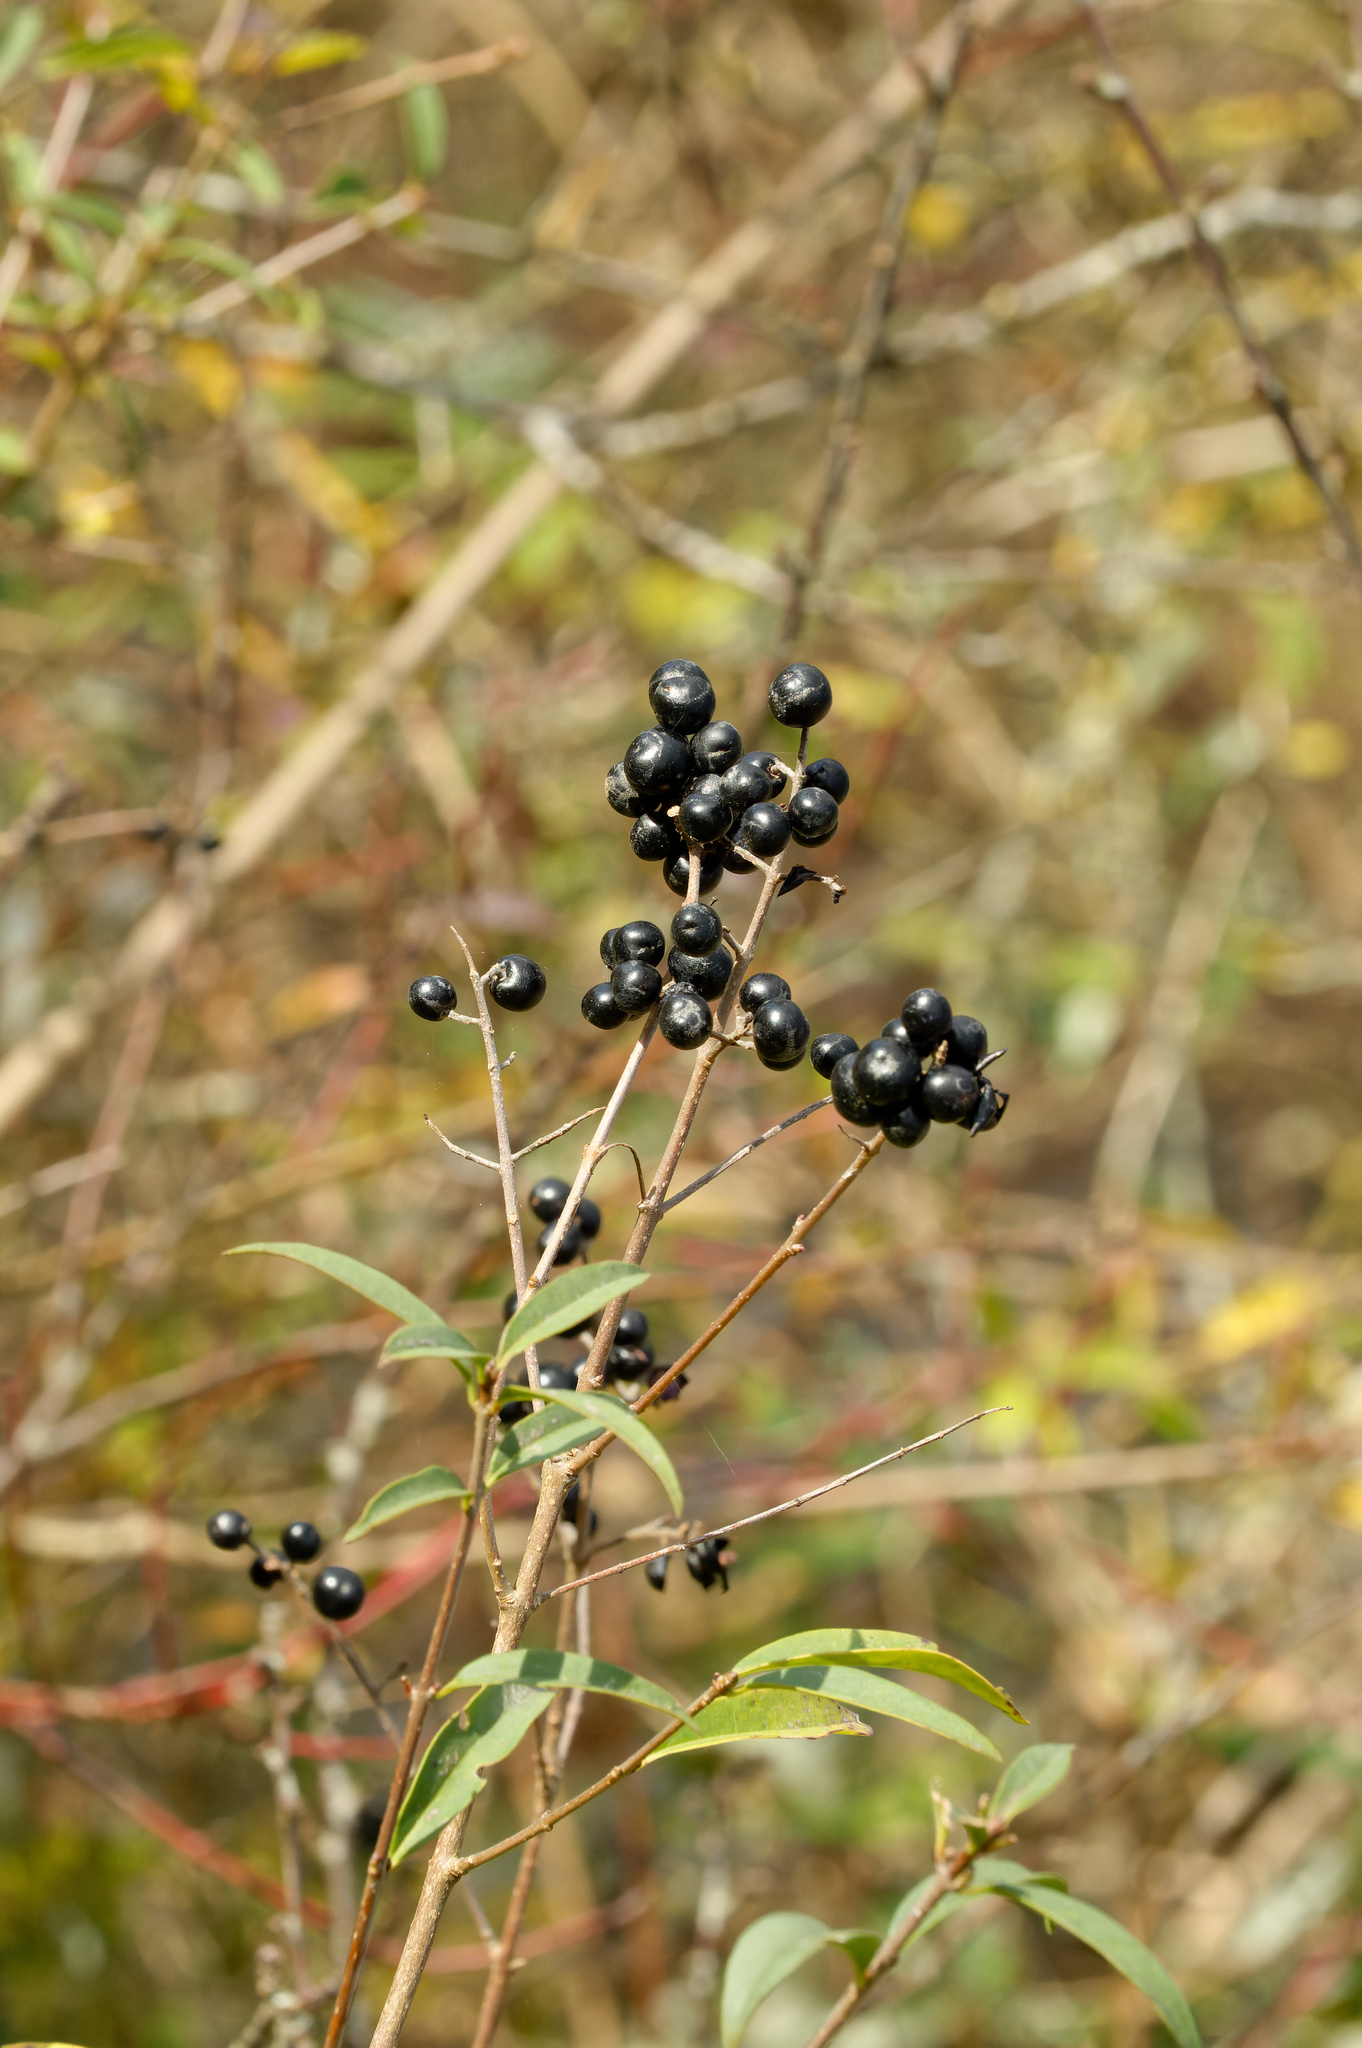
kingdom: Plantae
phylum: Tracheophyta
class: Magnoliopsida
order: Lamiales
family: Oleaceae
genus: Ligustrum
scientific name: Ligustrum vulgare
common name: Wild privet
